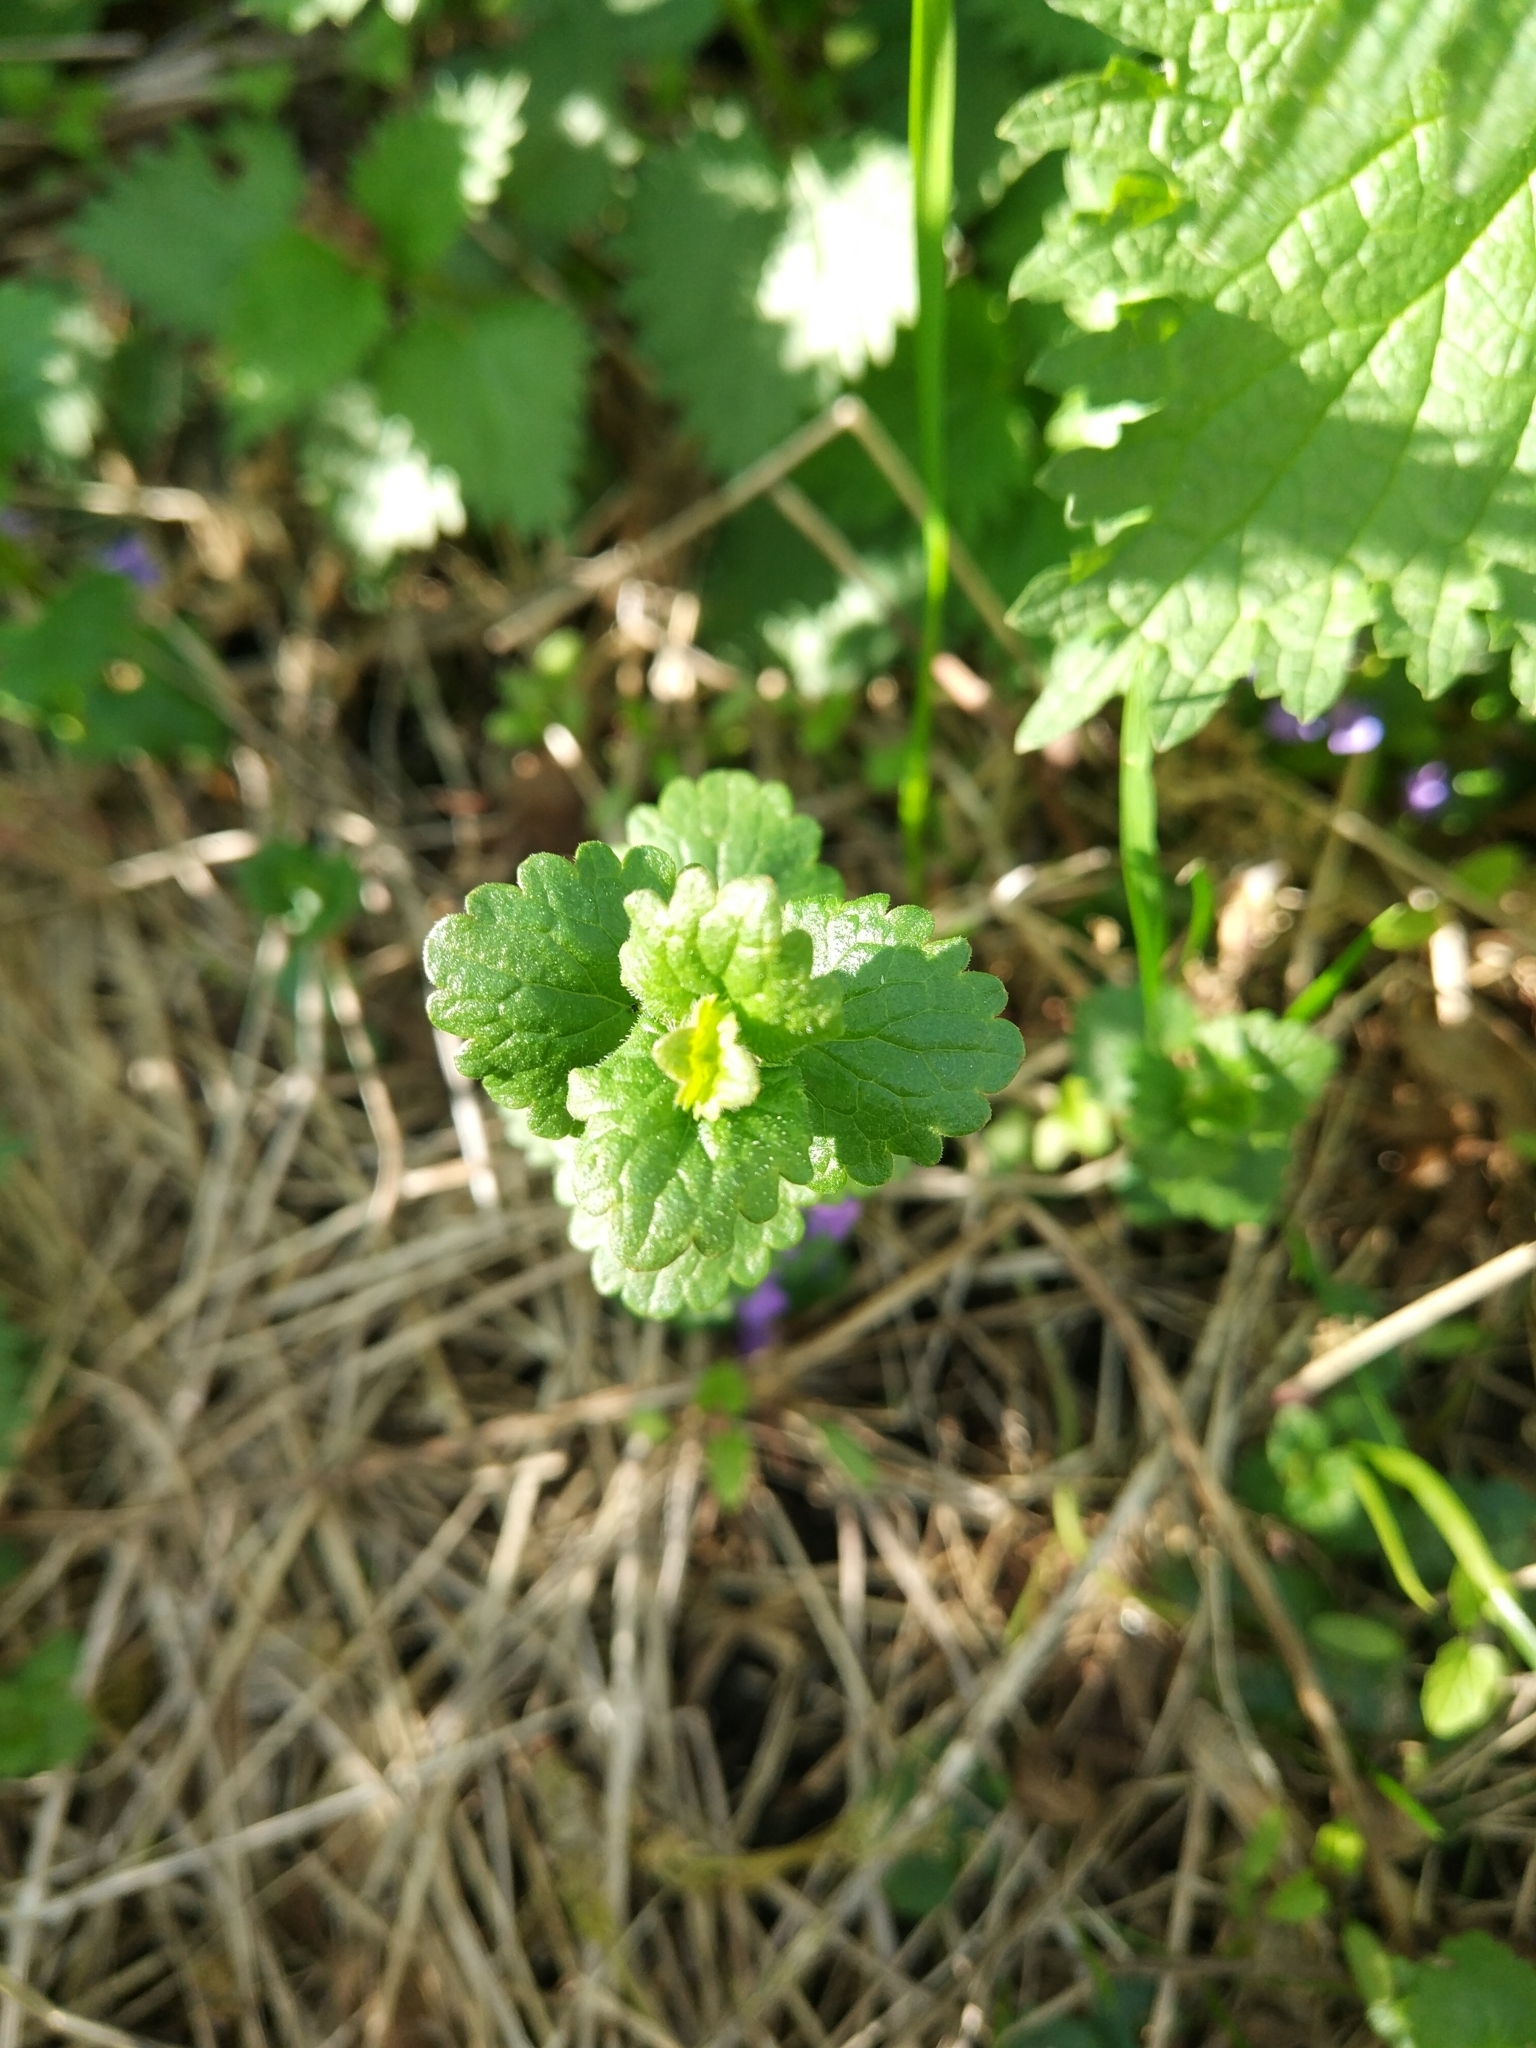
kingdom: Plantae
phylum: Tracheophyta
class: Magnoliopsida
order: Lamiales
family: Lamiaceae
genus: Glechoma
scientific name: Glechoma hederacea
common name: Ground ivy
